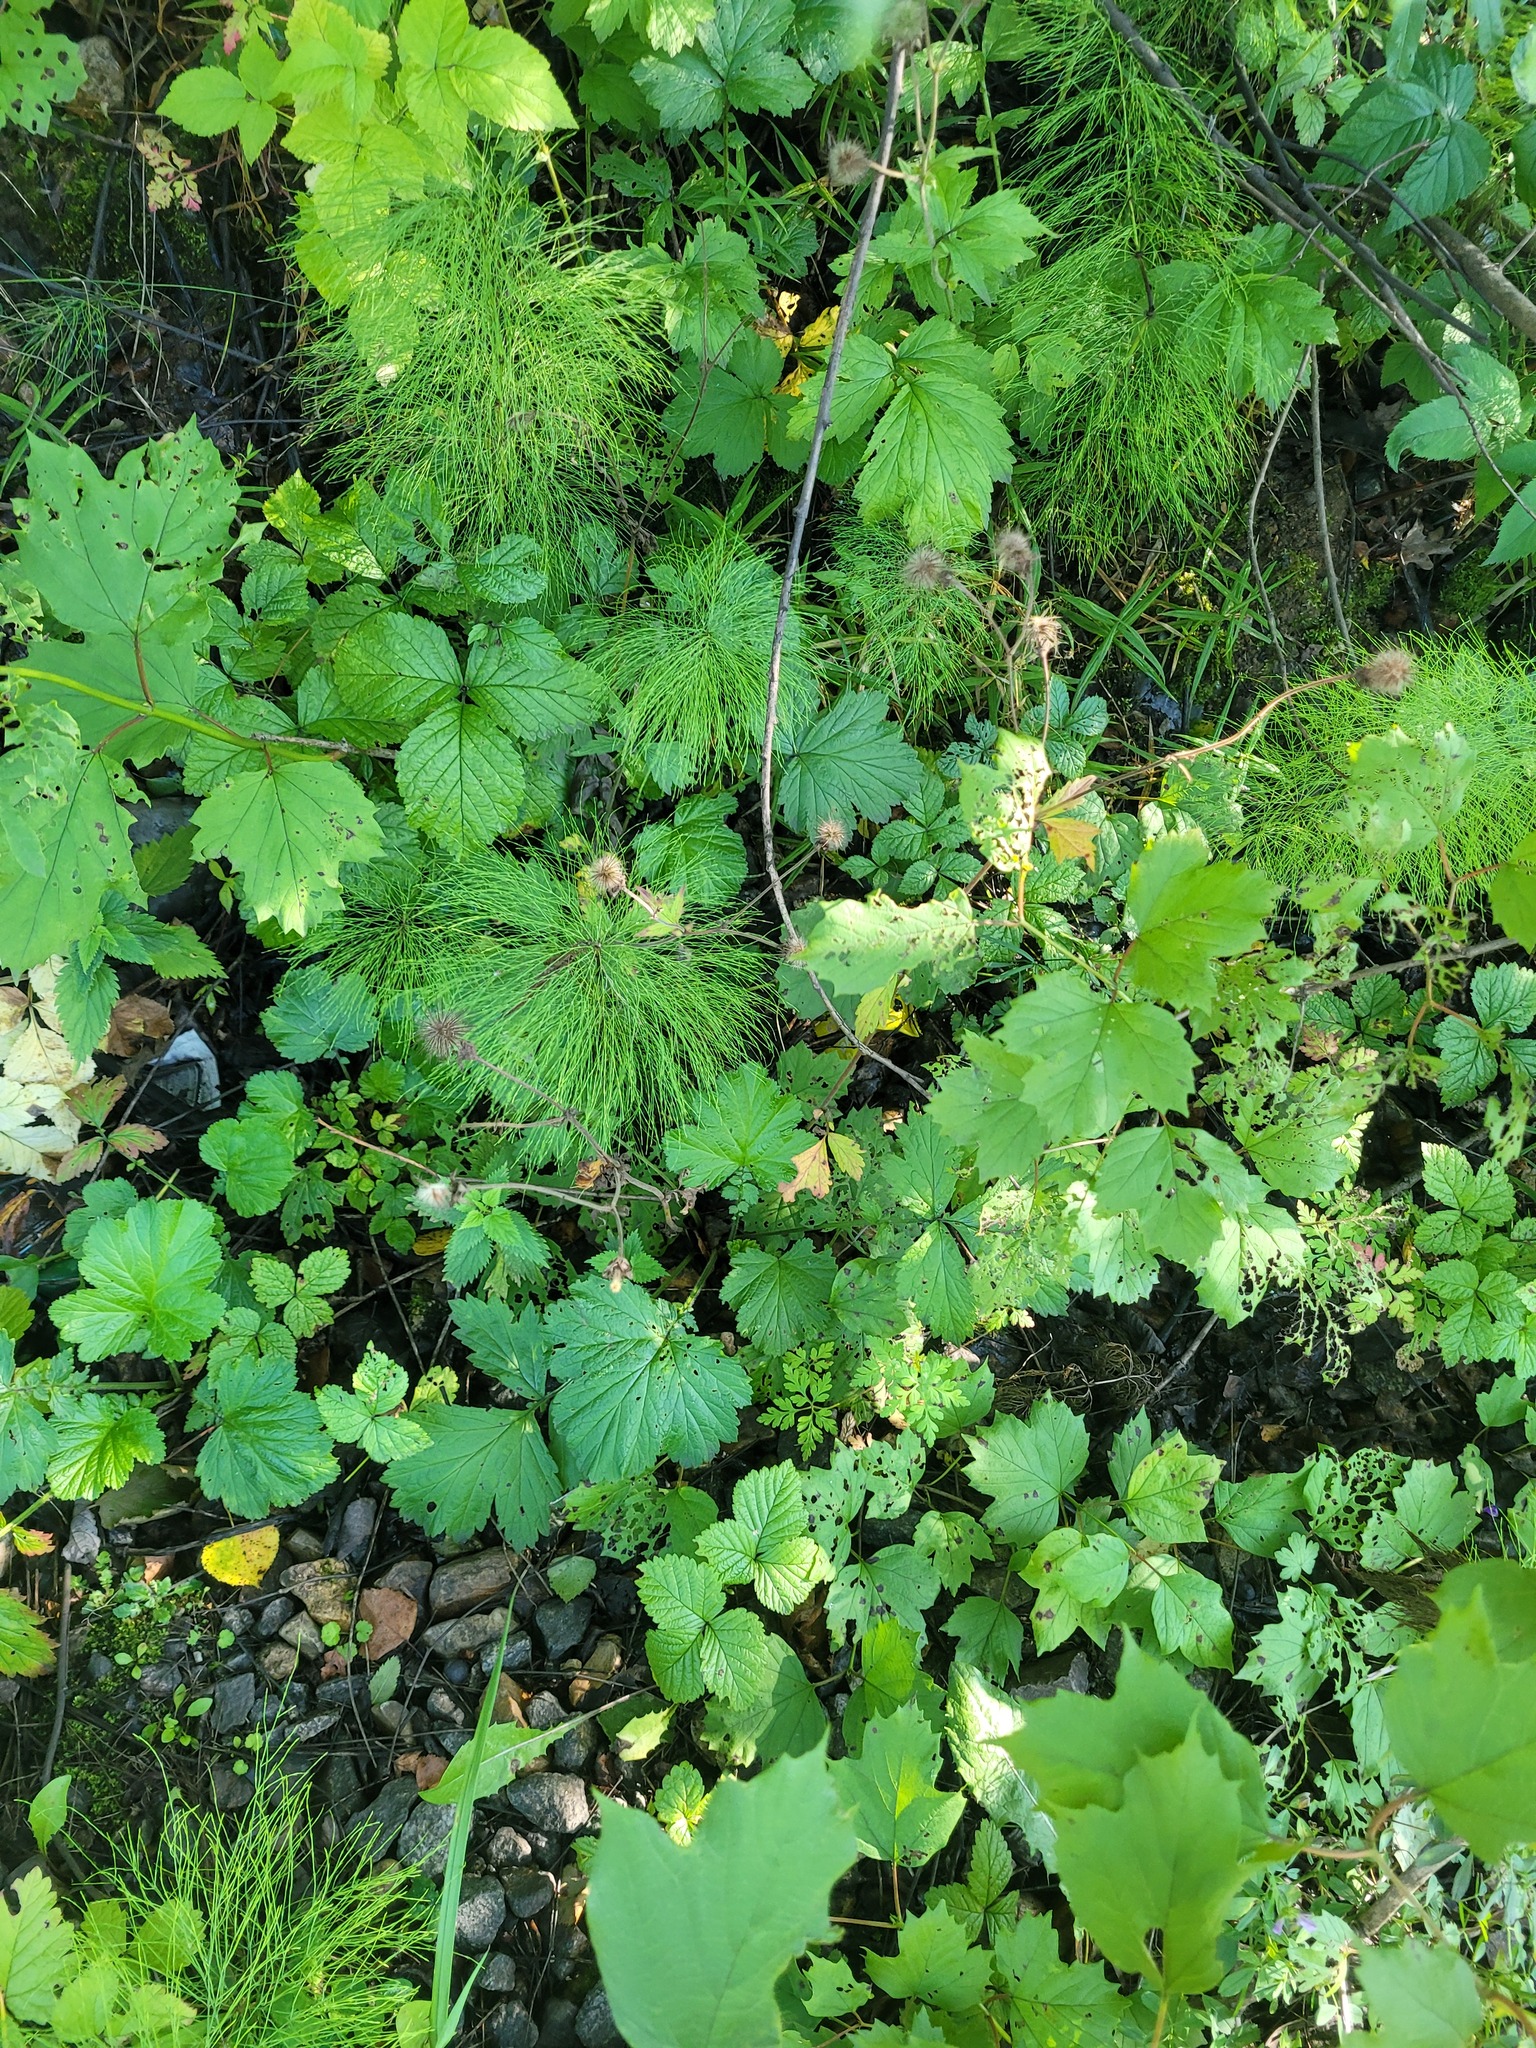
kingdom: Plantae
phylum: Tracheophyta
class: Magnoliopsida
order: Rosales
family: Rosaceae
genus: Geum
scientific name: Geum rivale
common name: Water avens
